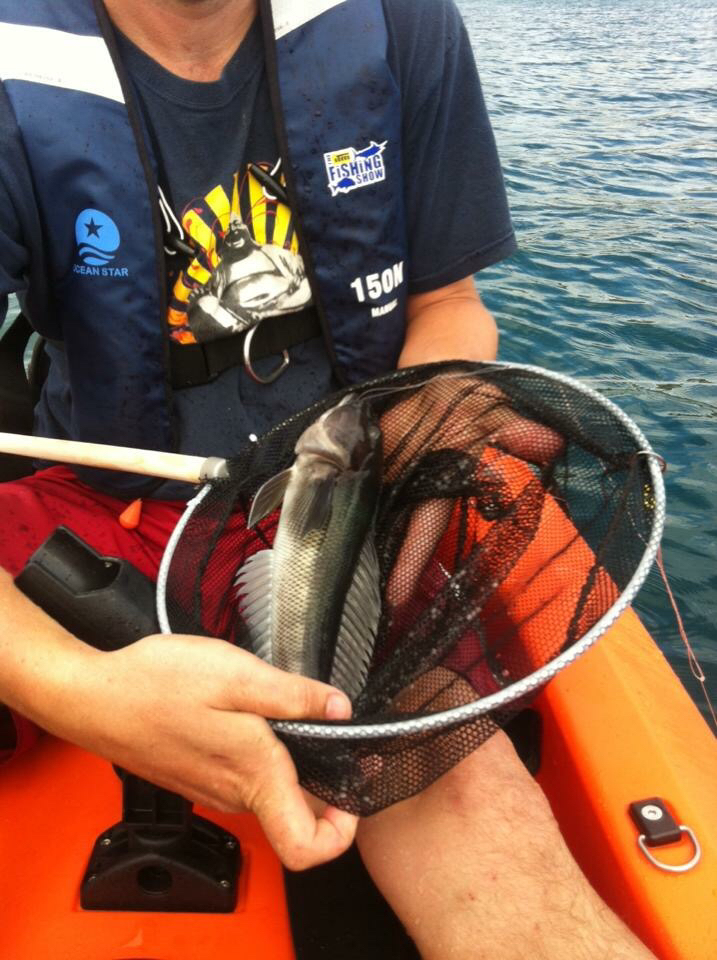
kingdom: Animalia
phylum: Chordata
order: Perciformes
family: Pinguipedidae
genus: Parapercis
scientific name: Parapercis colias
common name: Blue cod
